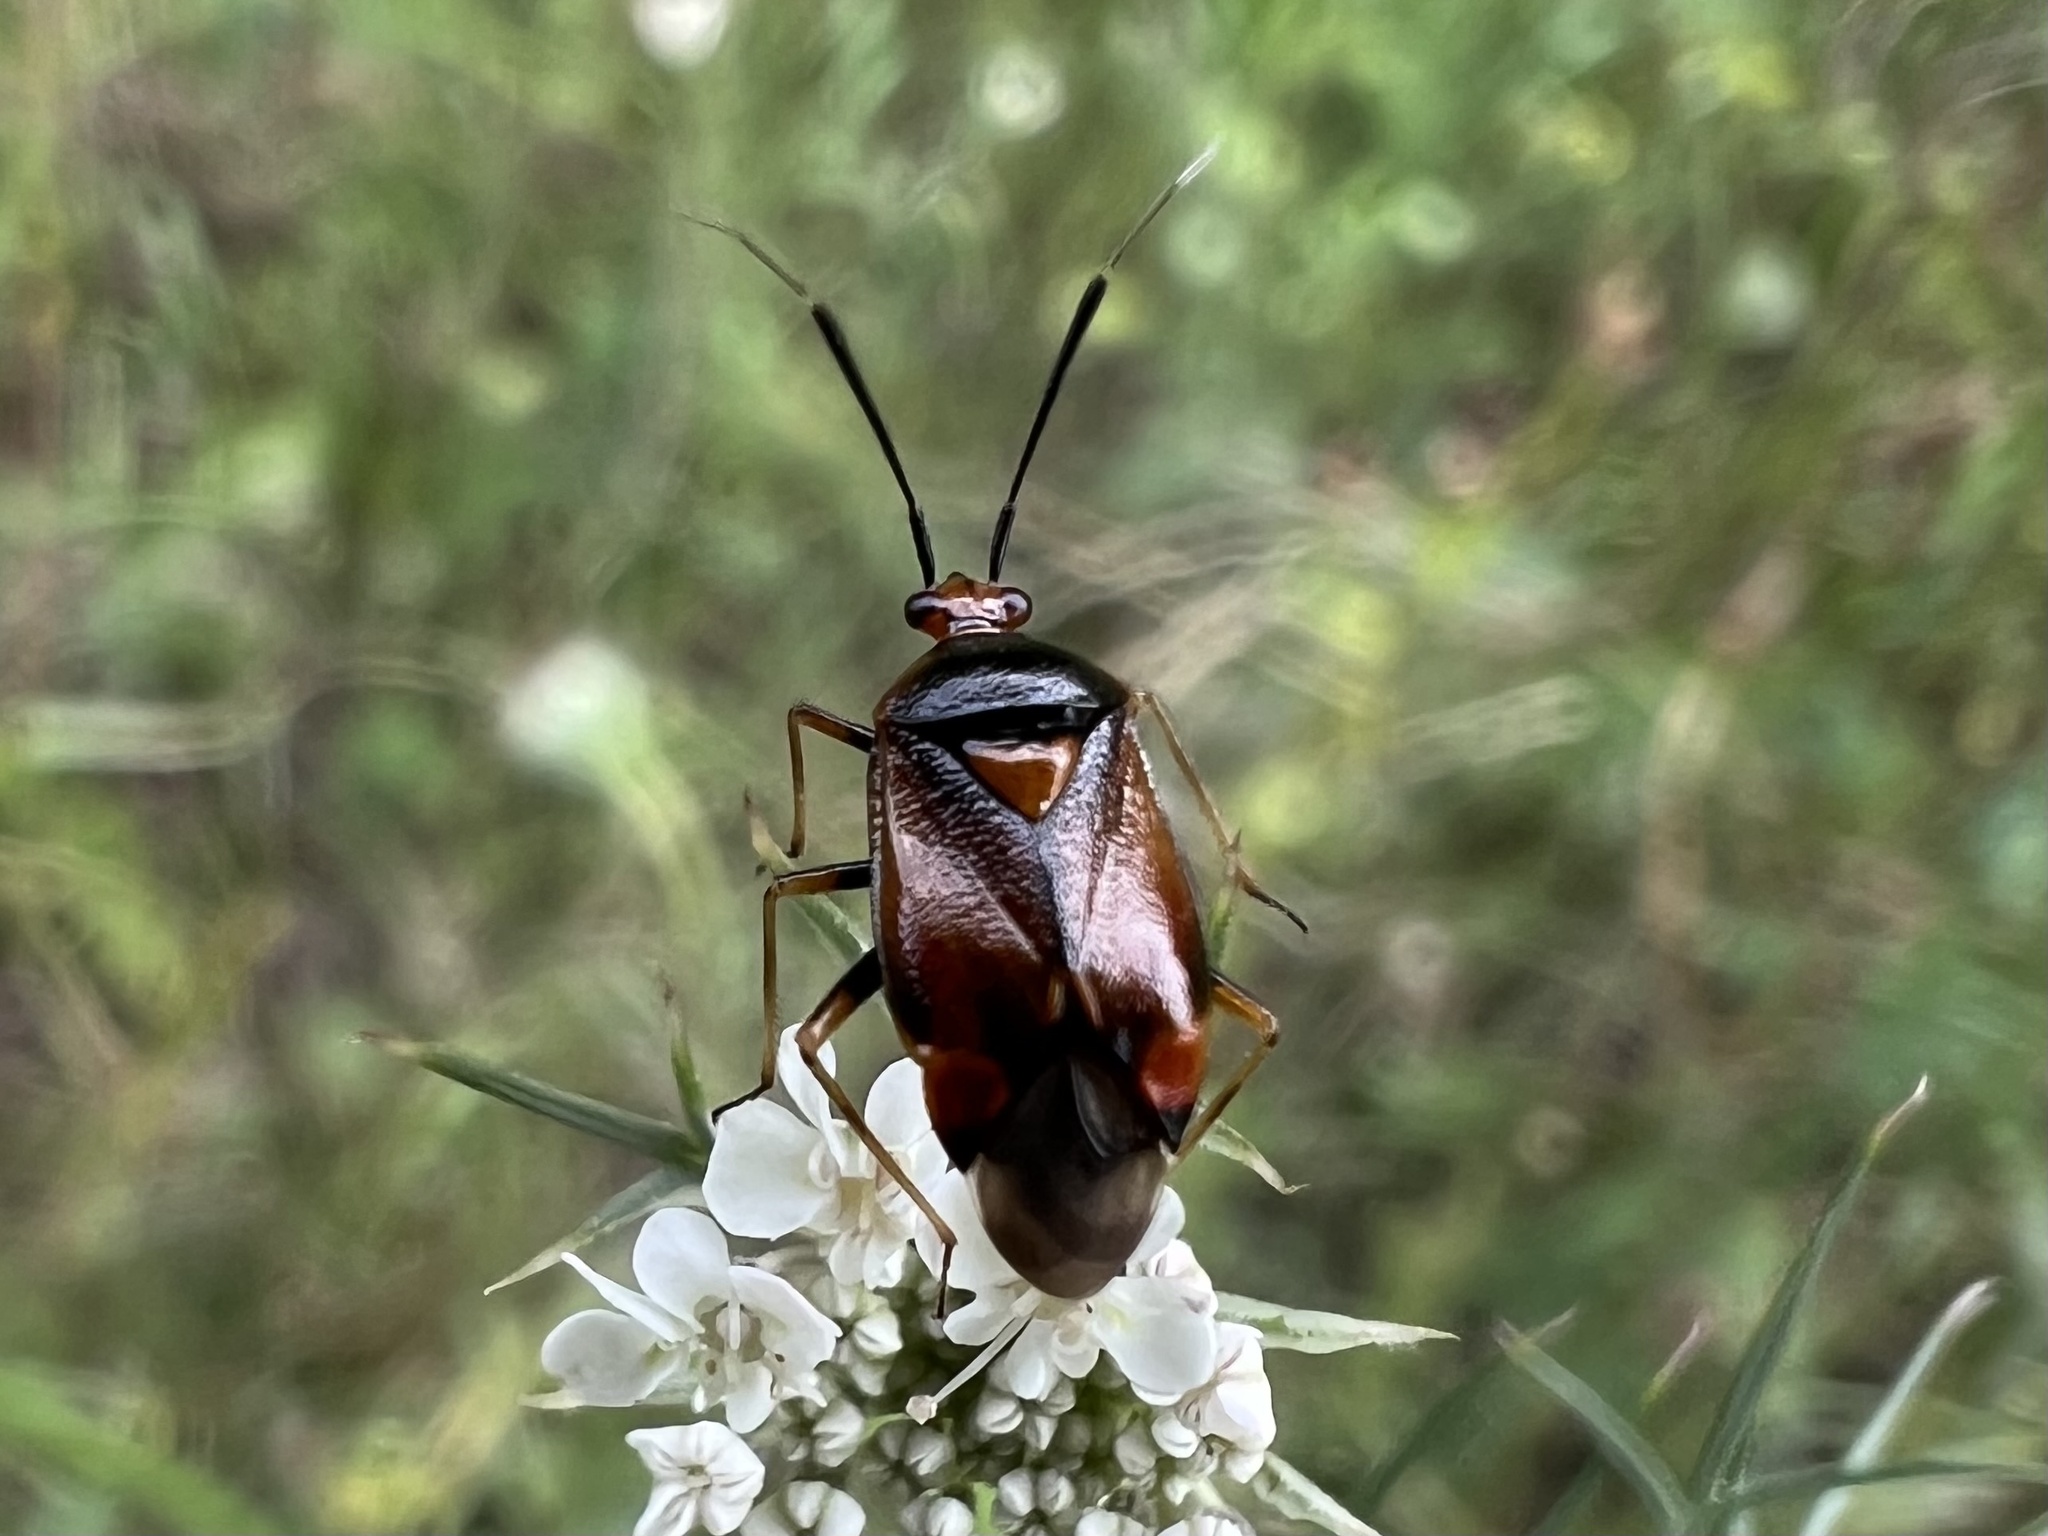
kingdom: Animalia
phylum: Arthropoda
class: Insecta
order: Hemiptera
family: Miridae
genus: Deraeocoris
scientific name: Deraeocoris ruber
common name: Plant bug
